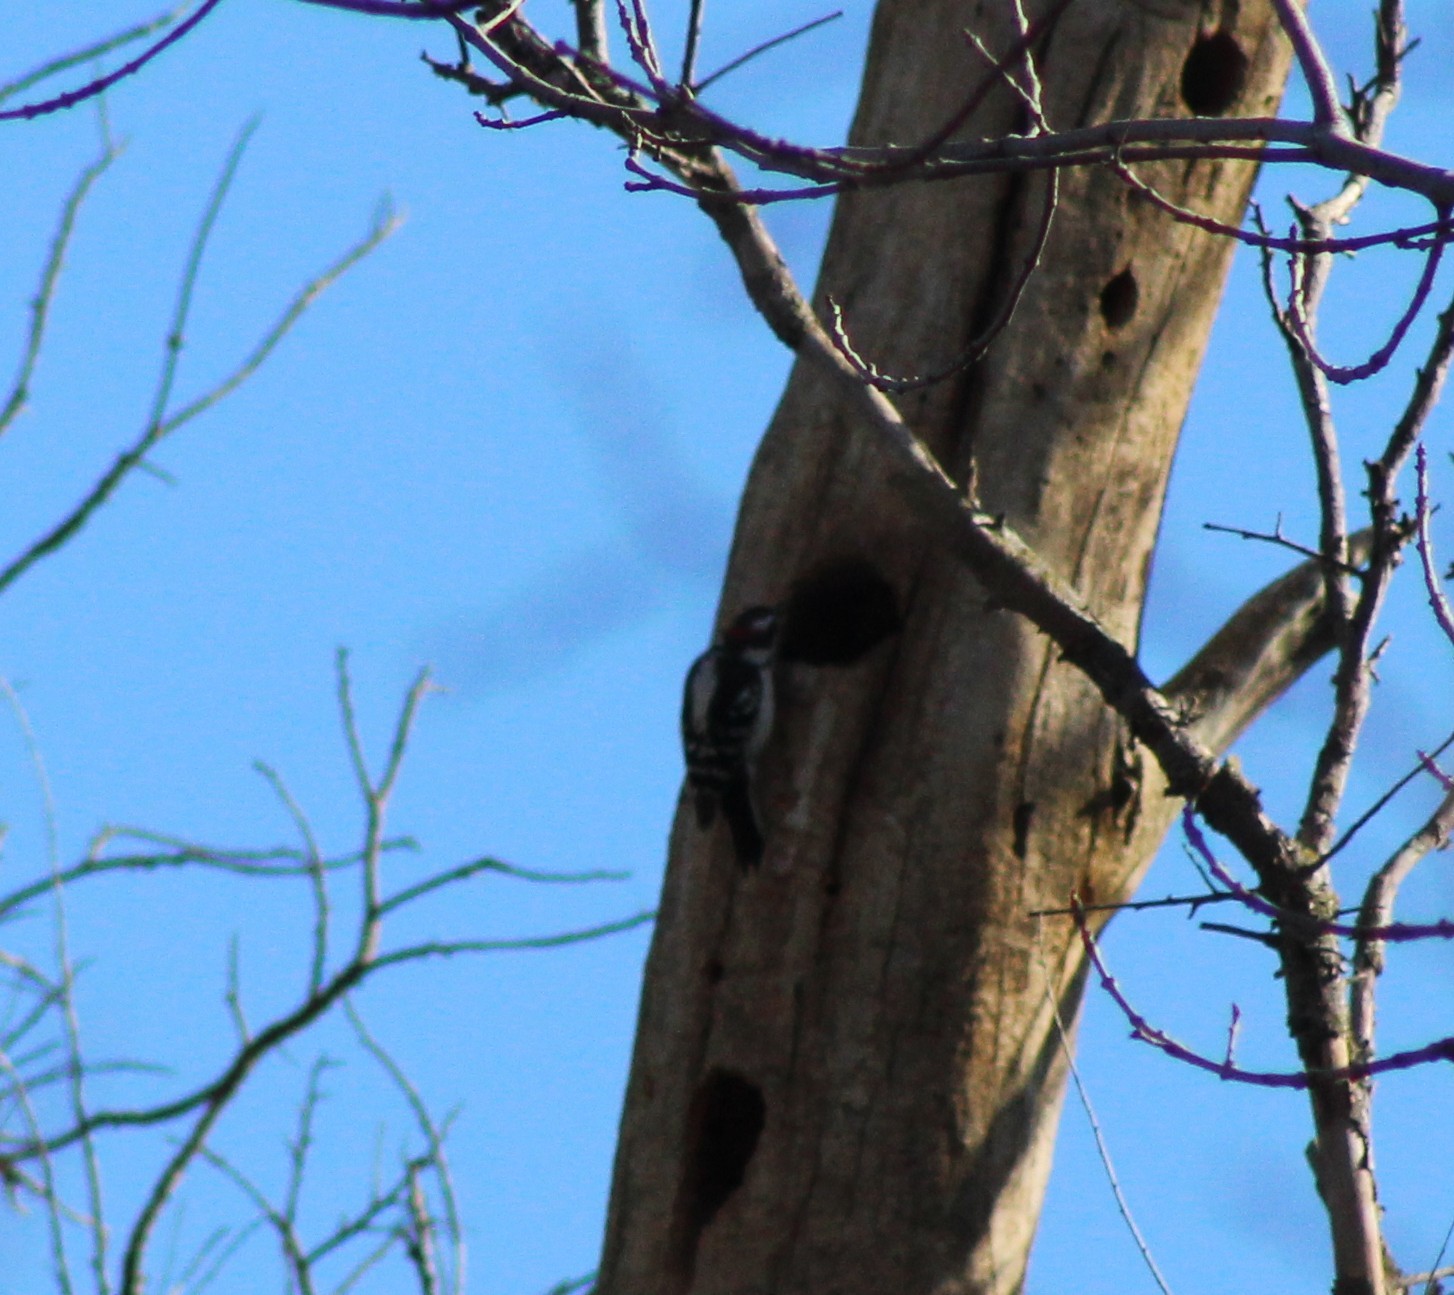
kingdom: Animalia
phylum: Chordata
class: Aves
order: Piciformes
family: Picidae
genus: Dryobates
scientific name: Dryobates pubescens
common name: Downy woodpecker
